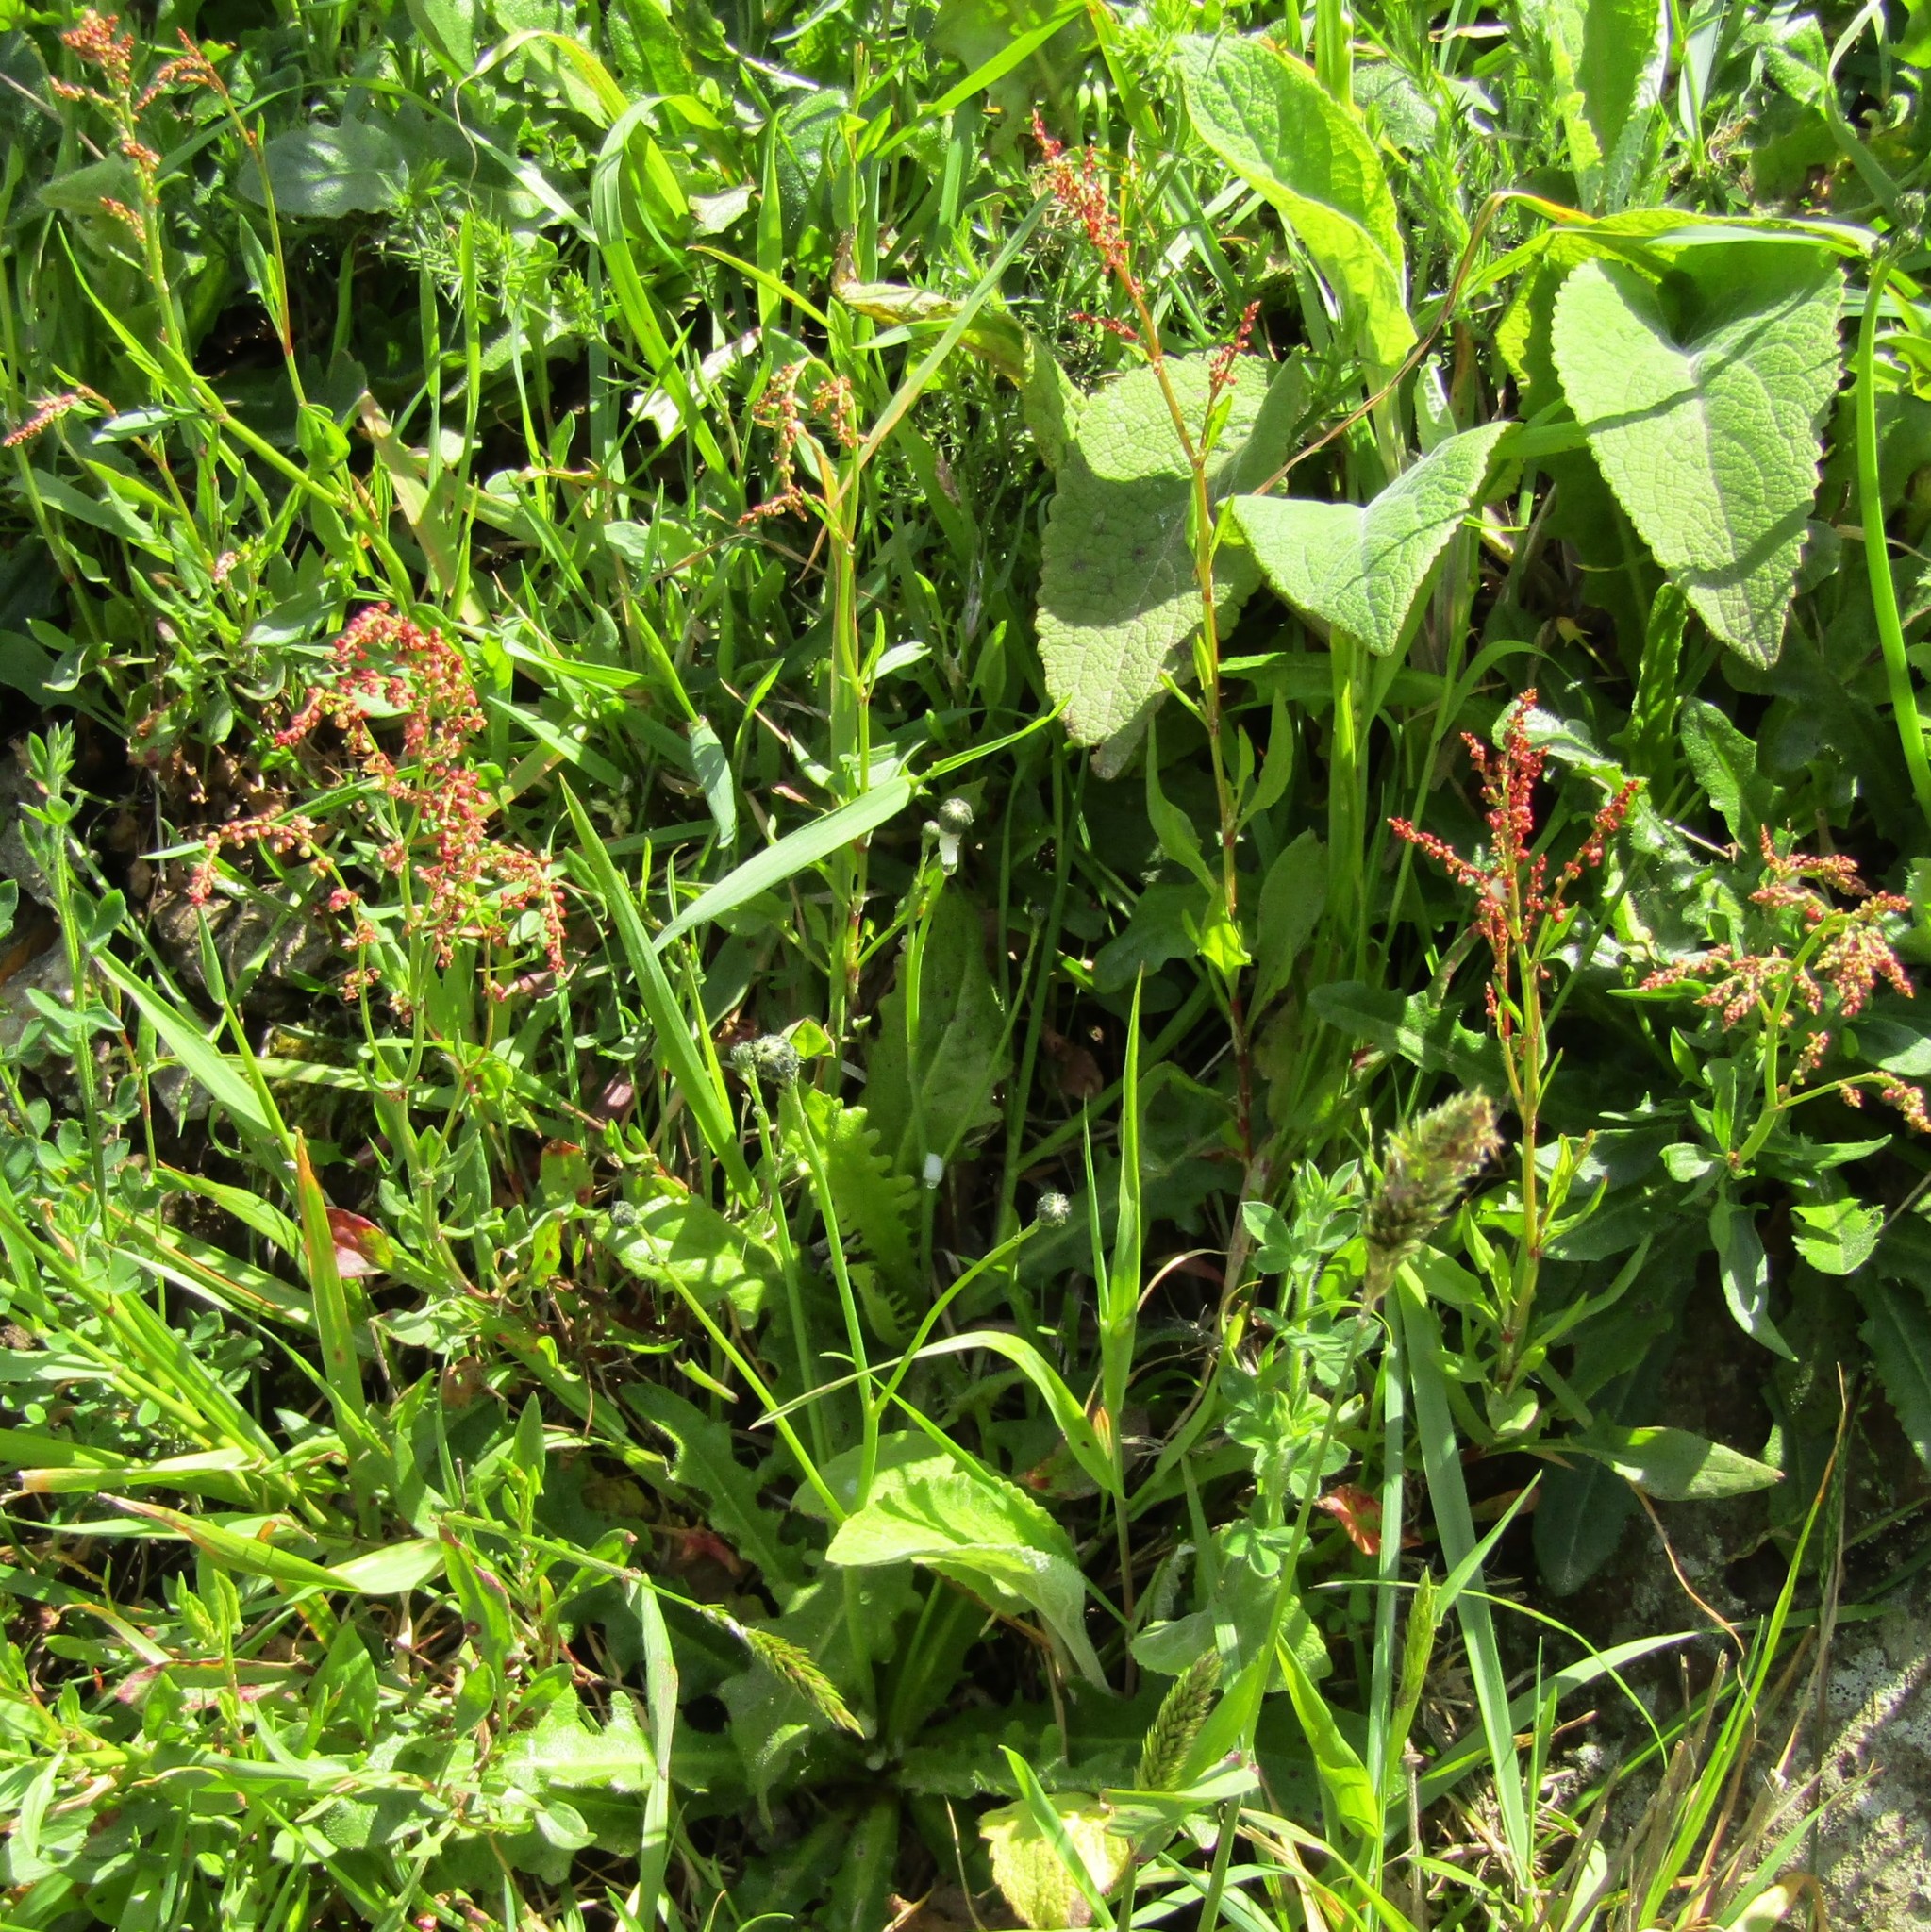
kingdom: Plantae
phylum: Tracheophyta
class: Magnoliopsida
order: Caryophyllales
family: Polygonaceae
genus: Rumex
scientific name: Rumex acetosella
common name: Common sheep sorrel
